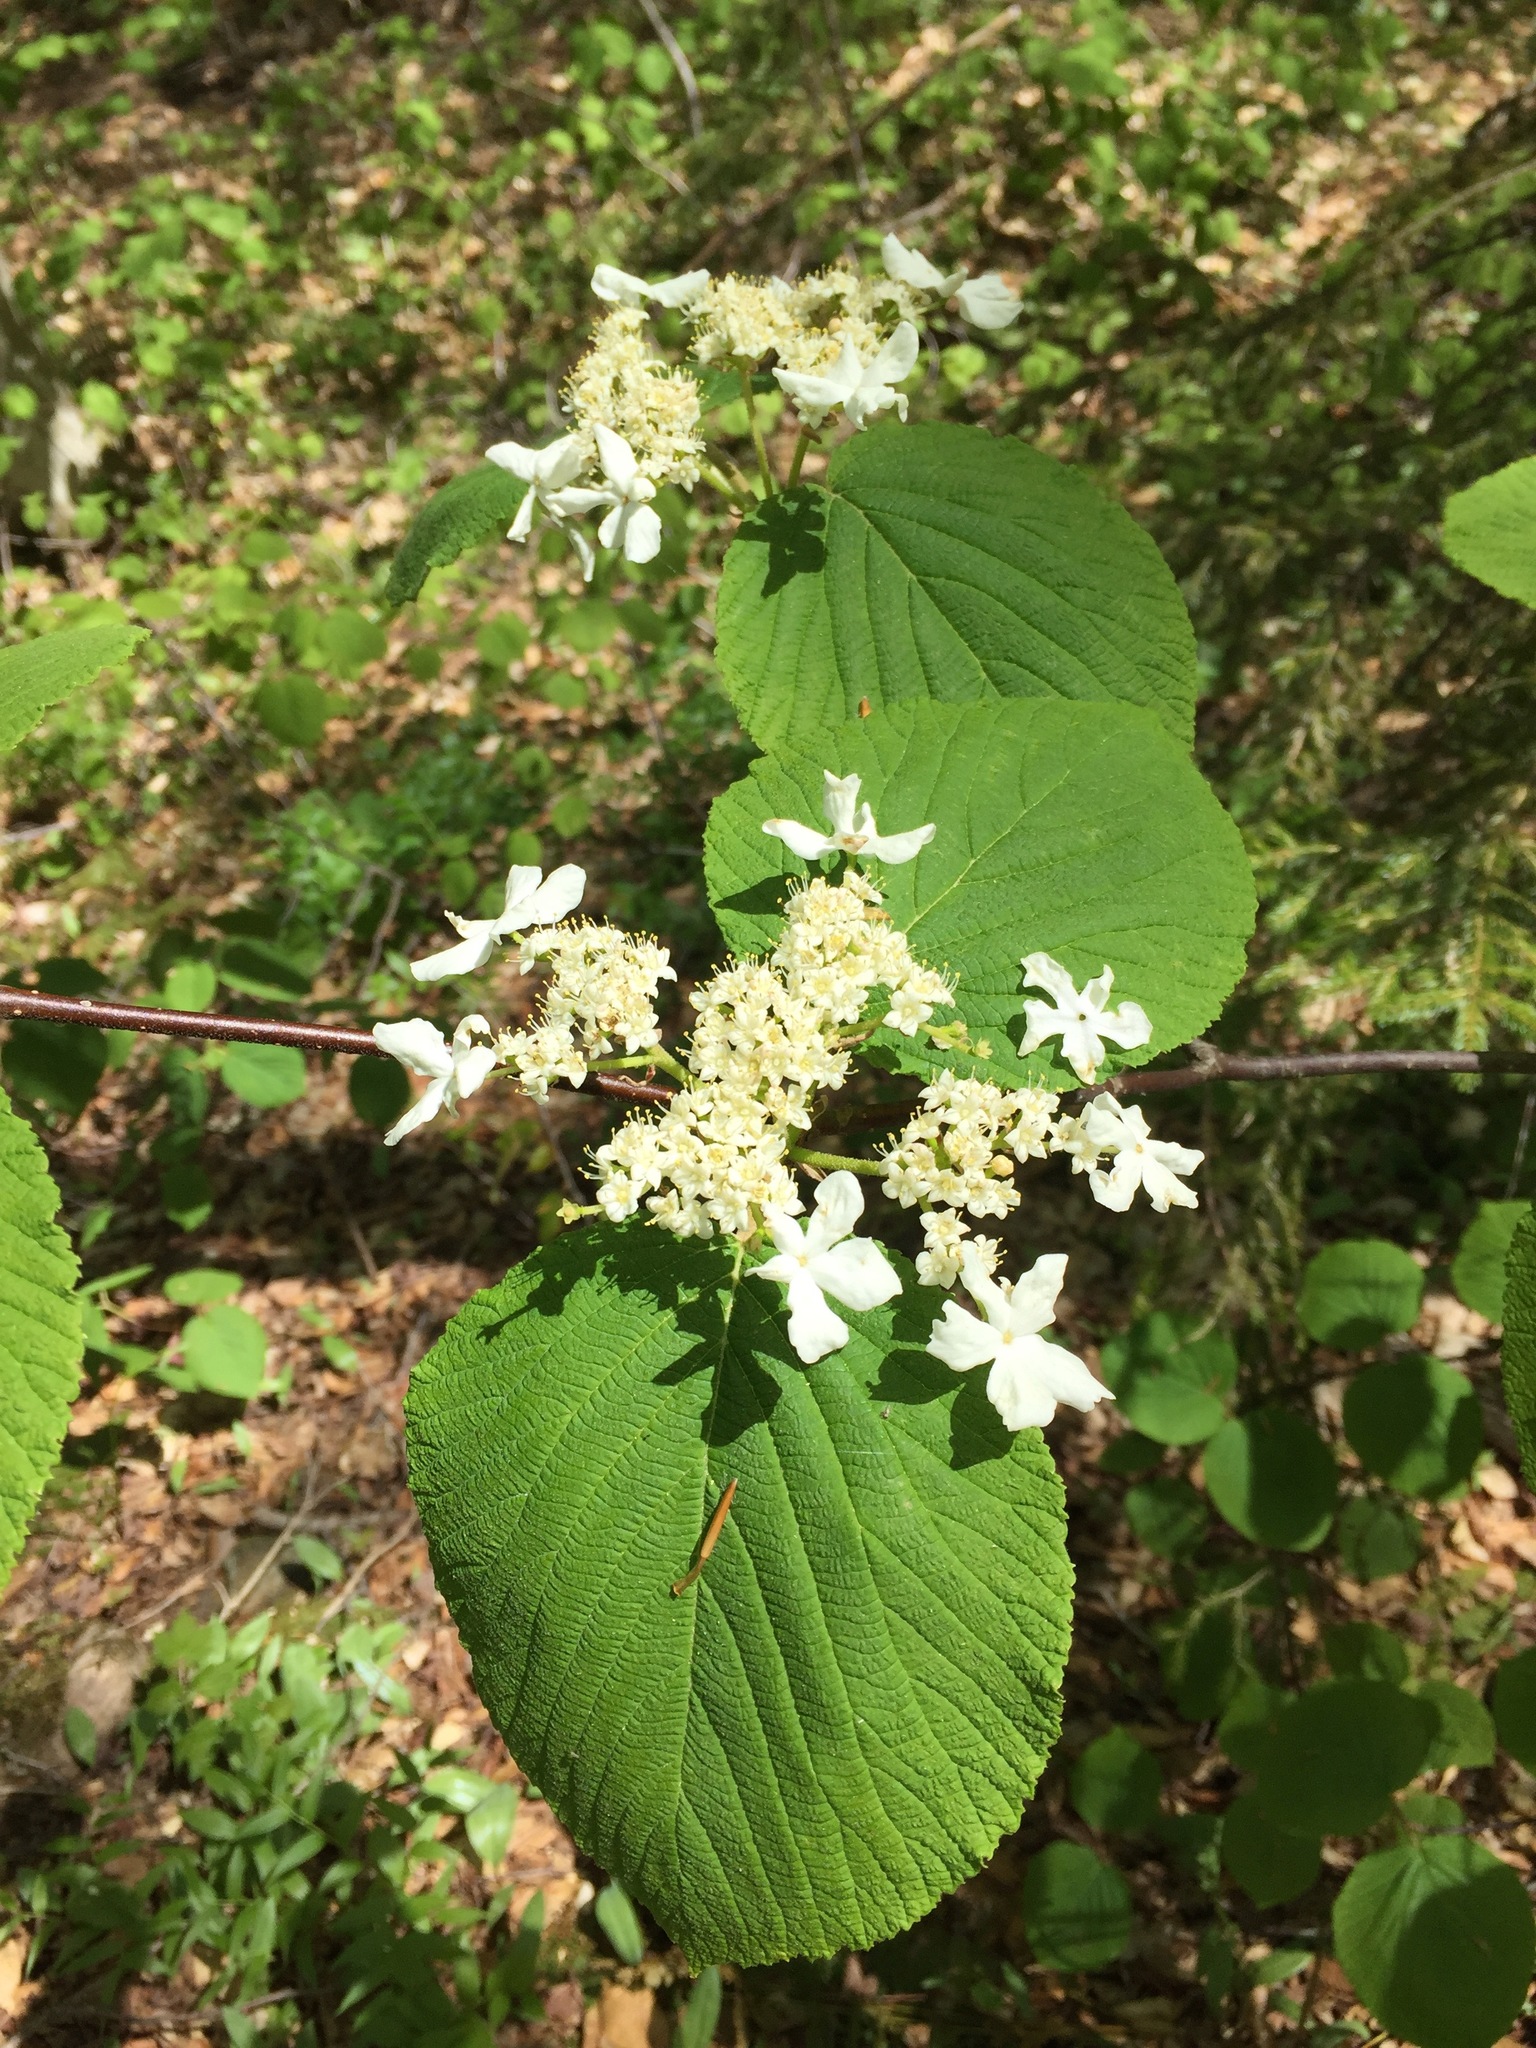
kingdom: Plantae
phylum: Tracheophyta
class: Magnoliopsida
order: Dipsacales
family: Viburnaceae
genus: Viburnum
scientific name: Viburnum lantanoides
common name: Hobblebush
